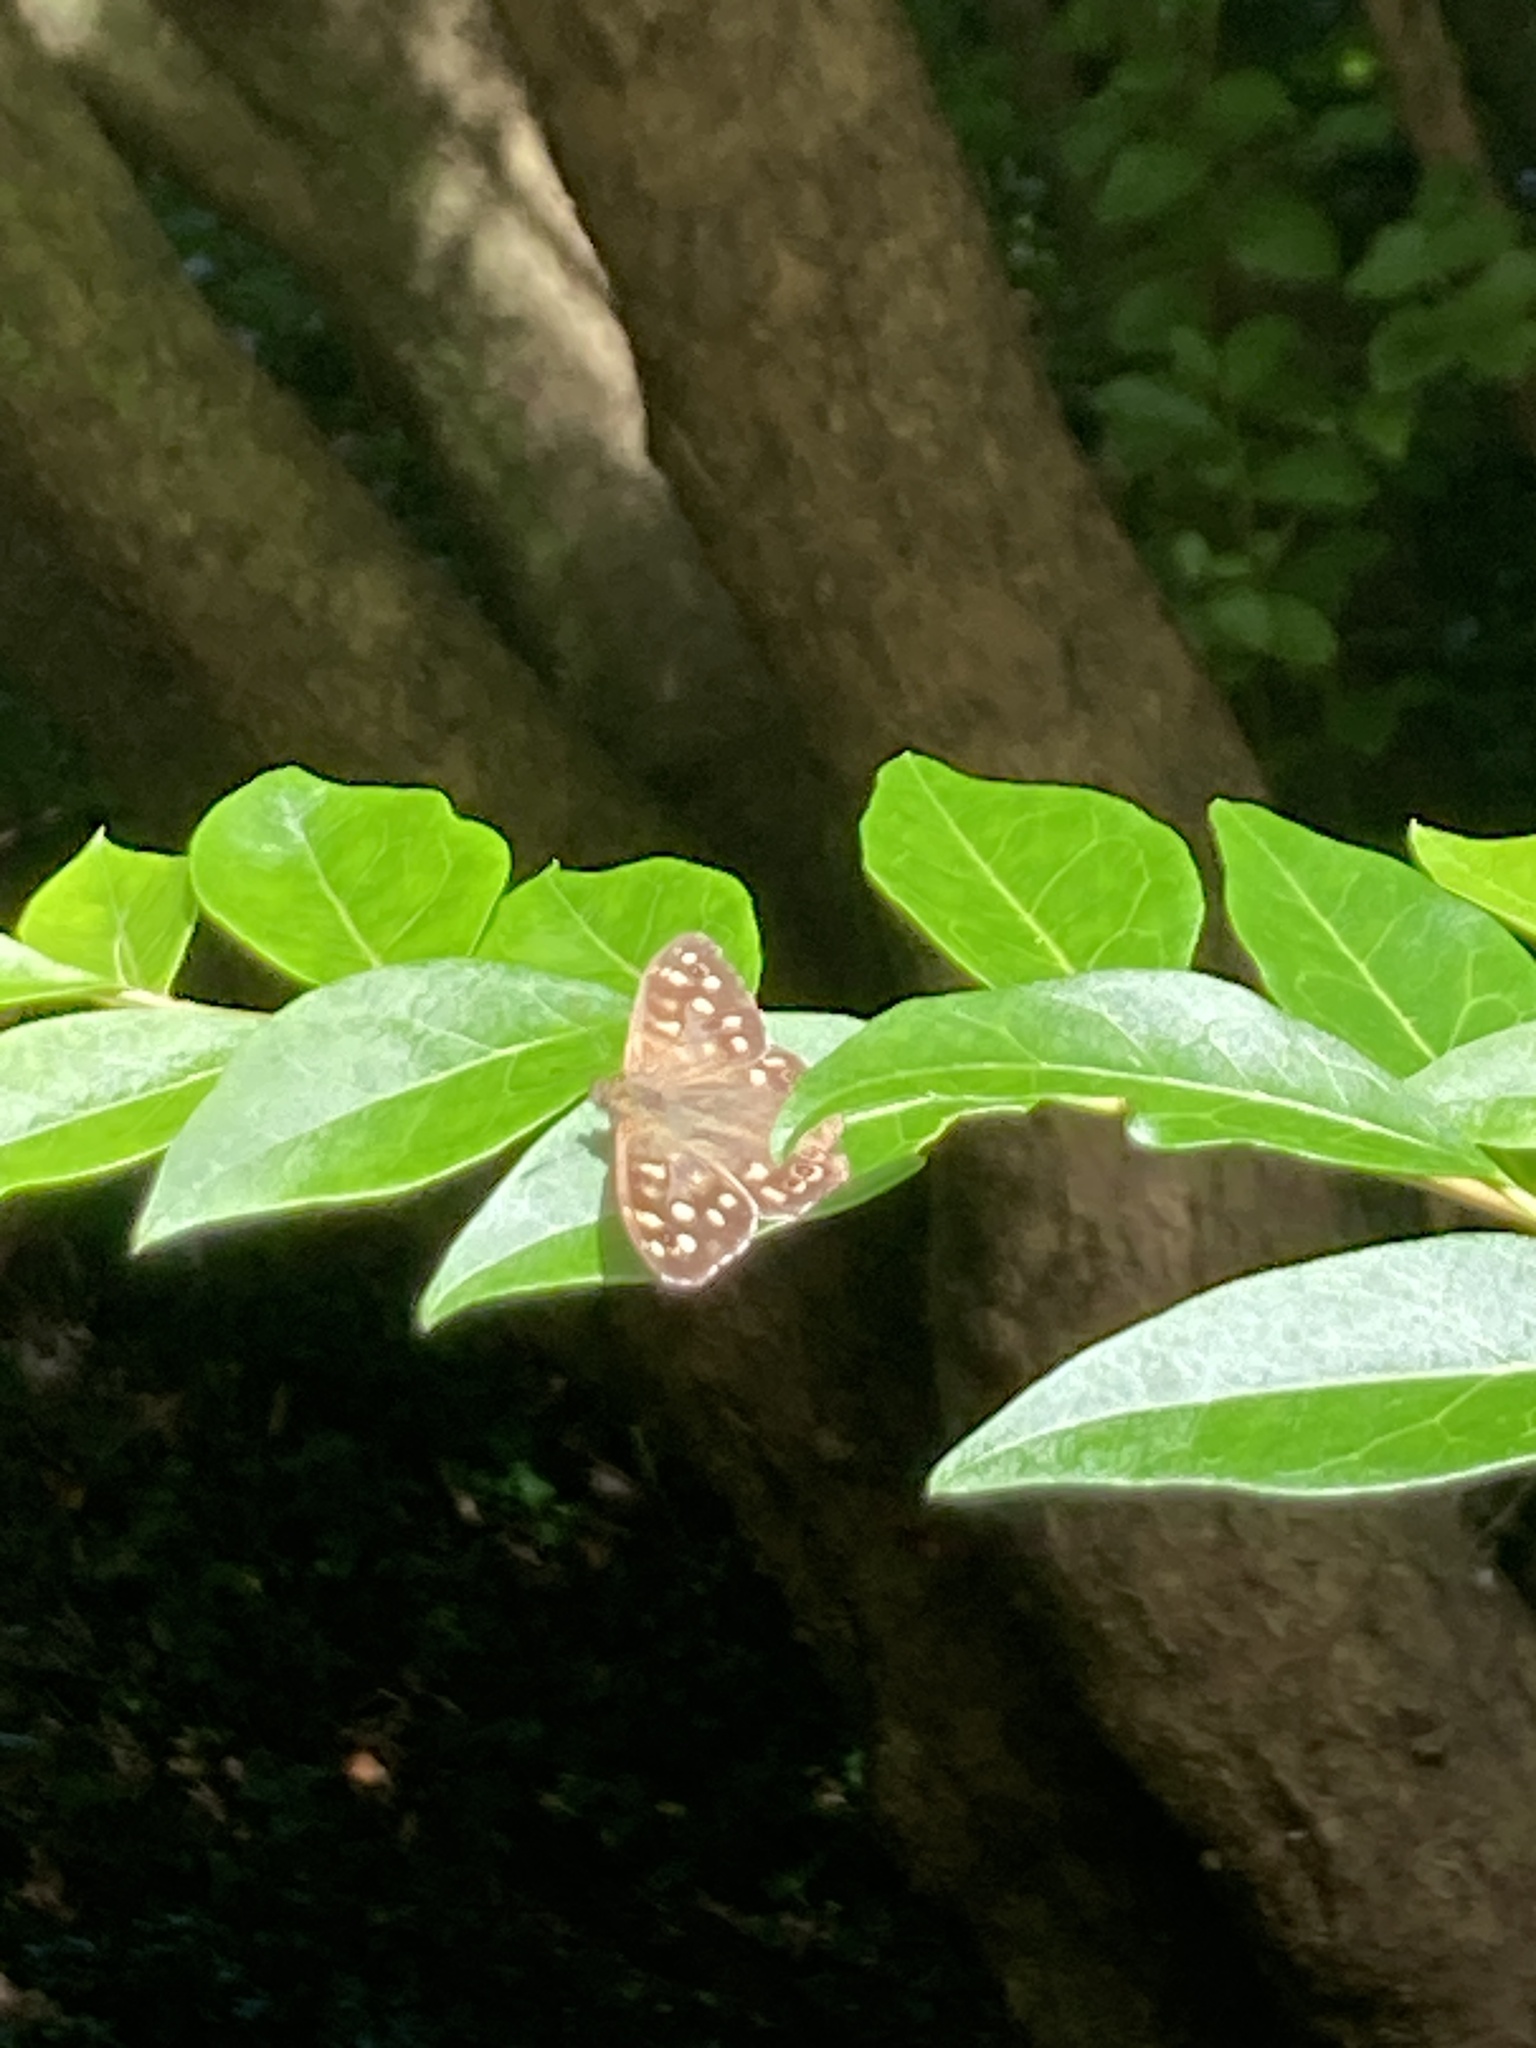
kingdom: Animalia
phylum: Arthropoda
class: Insecta
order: Lepidoptera
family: Nymphalidae
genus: Pararge
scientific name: Pararge aegeria
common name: Speckled wood
